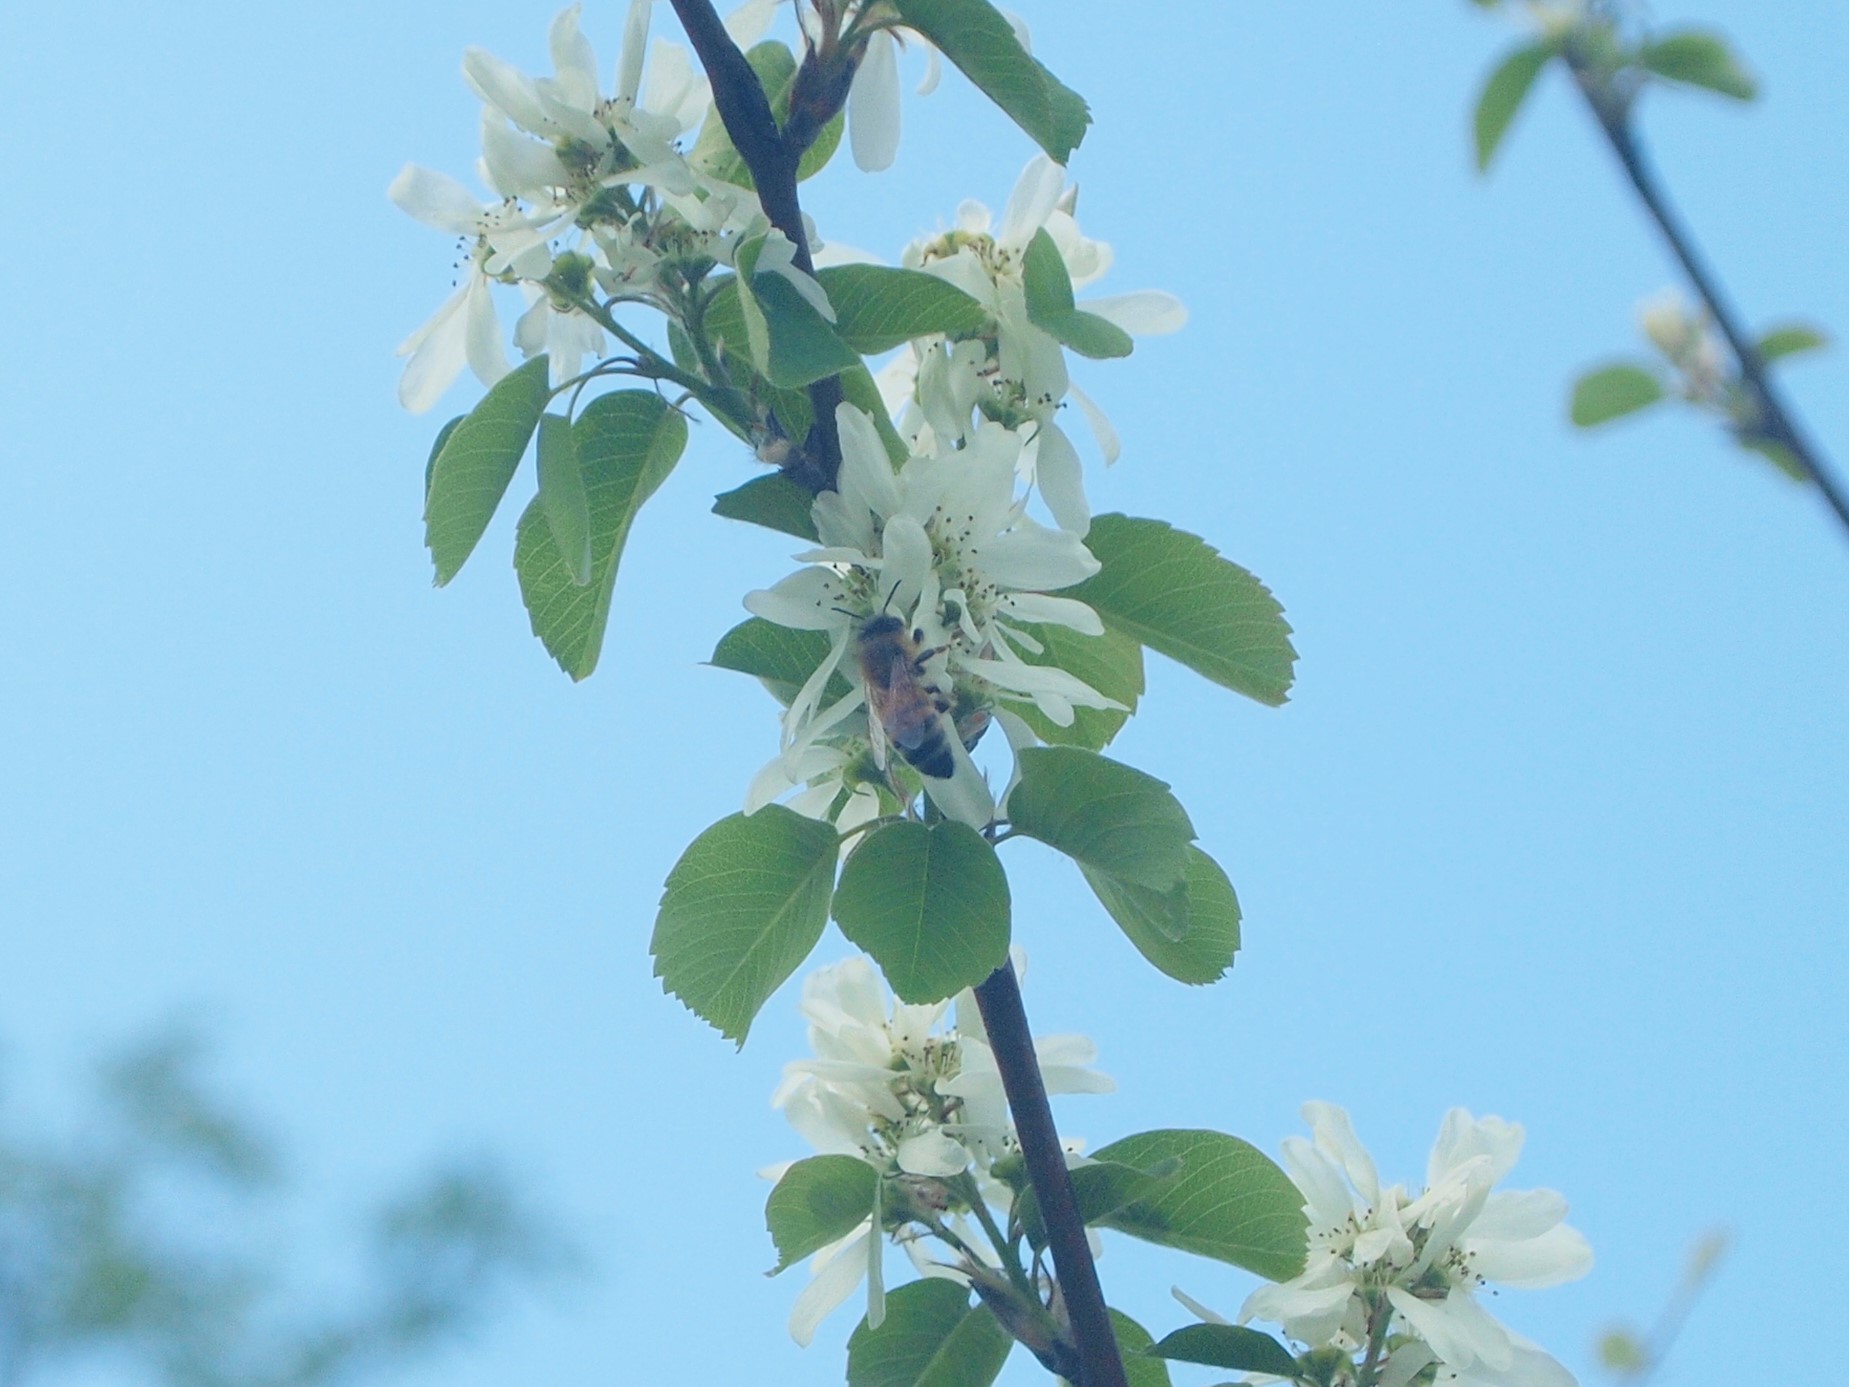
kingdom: Animalia
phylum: Arthropoda
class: Insecta
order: Hymenoptera
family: Apidae
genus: Apis
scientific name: Apis mellifera
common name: Honey bee
